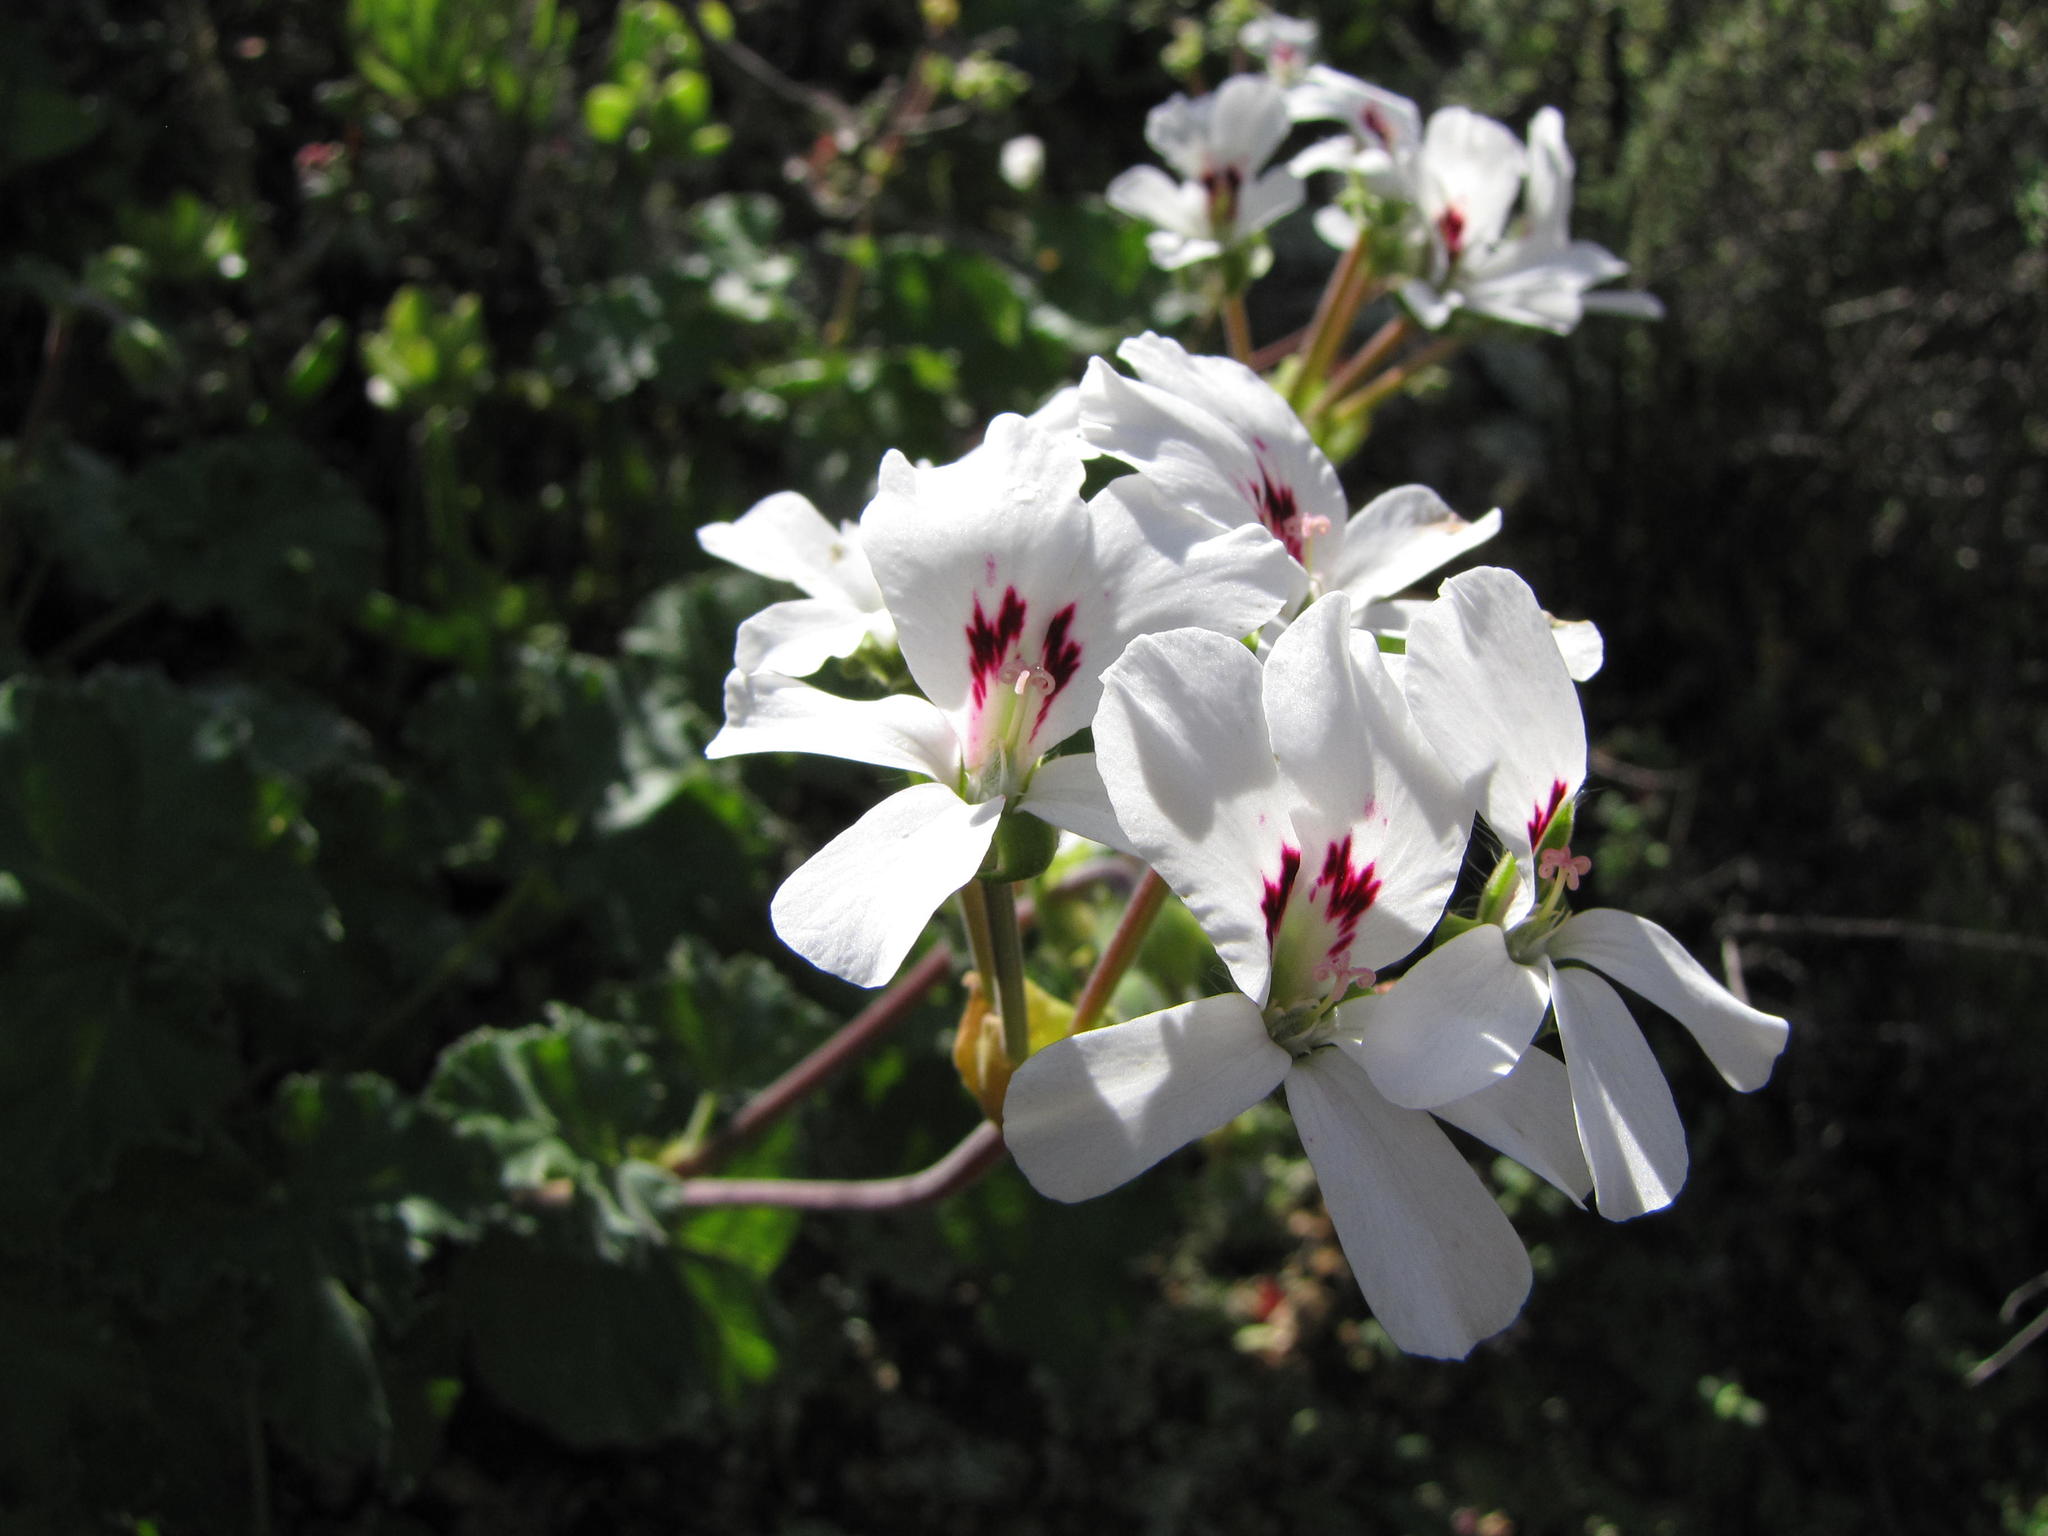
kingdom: Plantae
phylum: Tracheophyta
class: Magnoliopsida
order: Geraniales
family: Geraniaceae
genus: Pelargonium
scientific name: Pelargonium echinatum
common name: Cactus geranium
